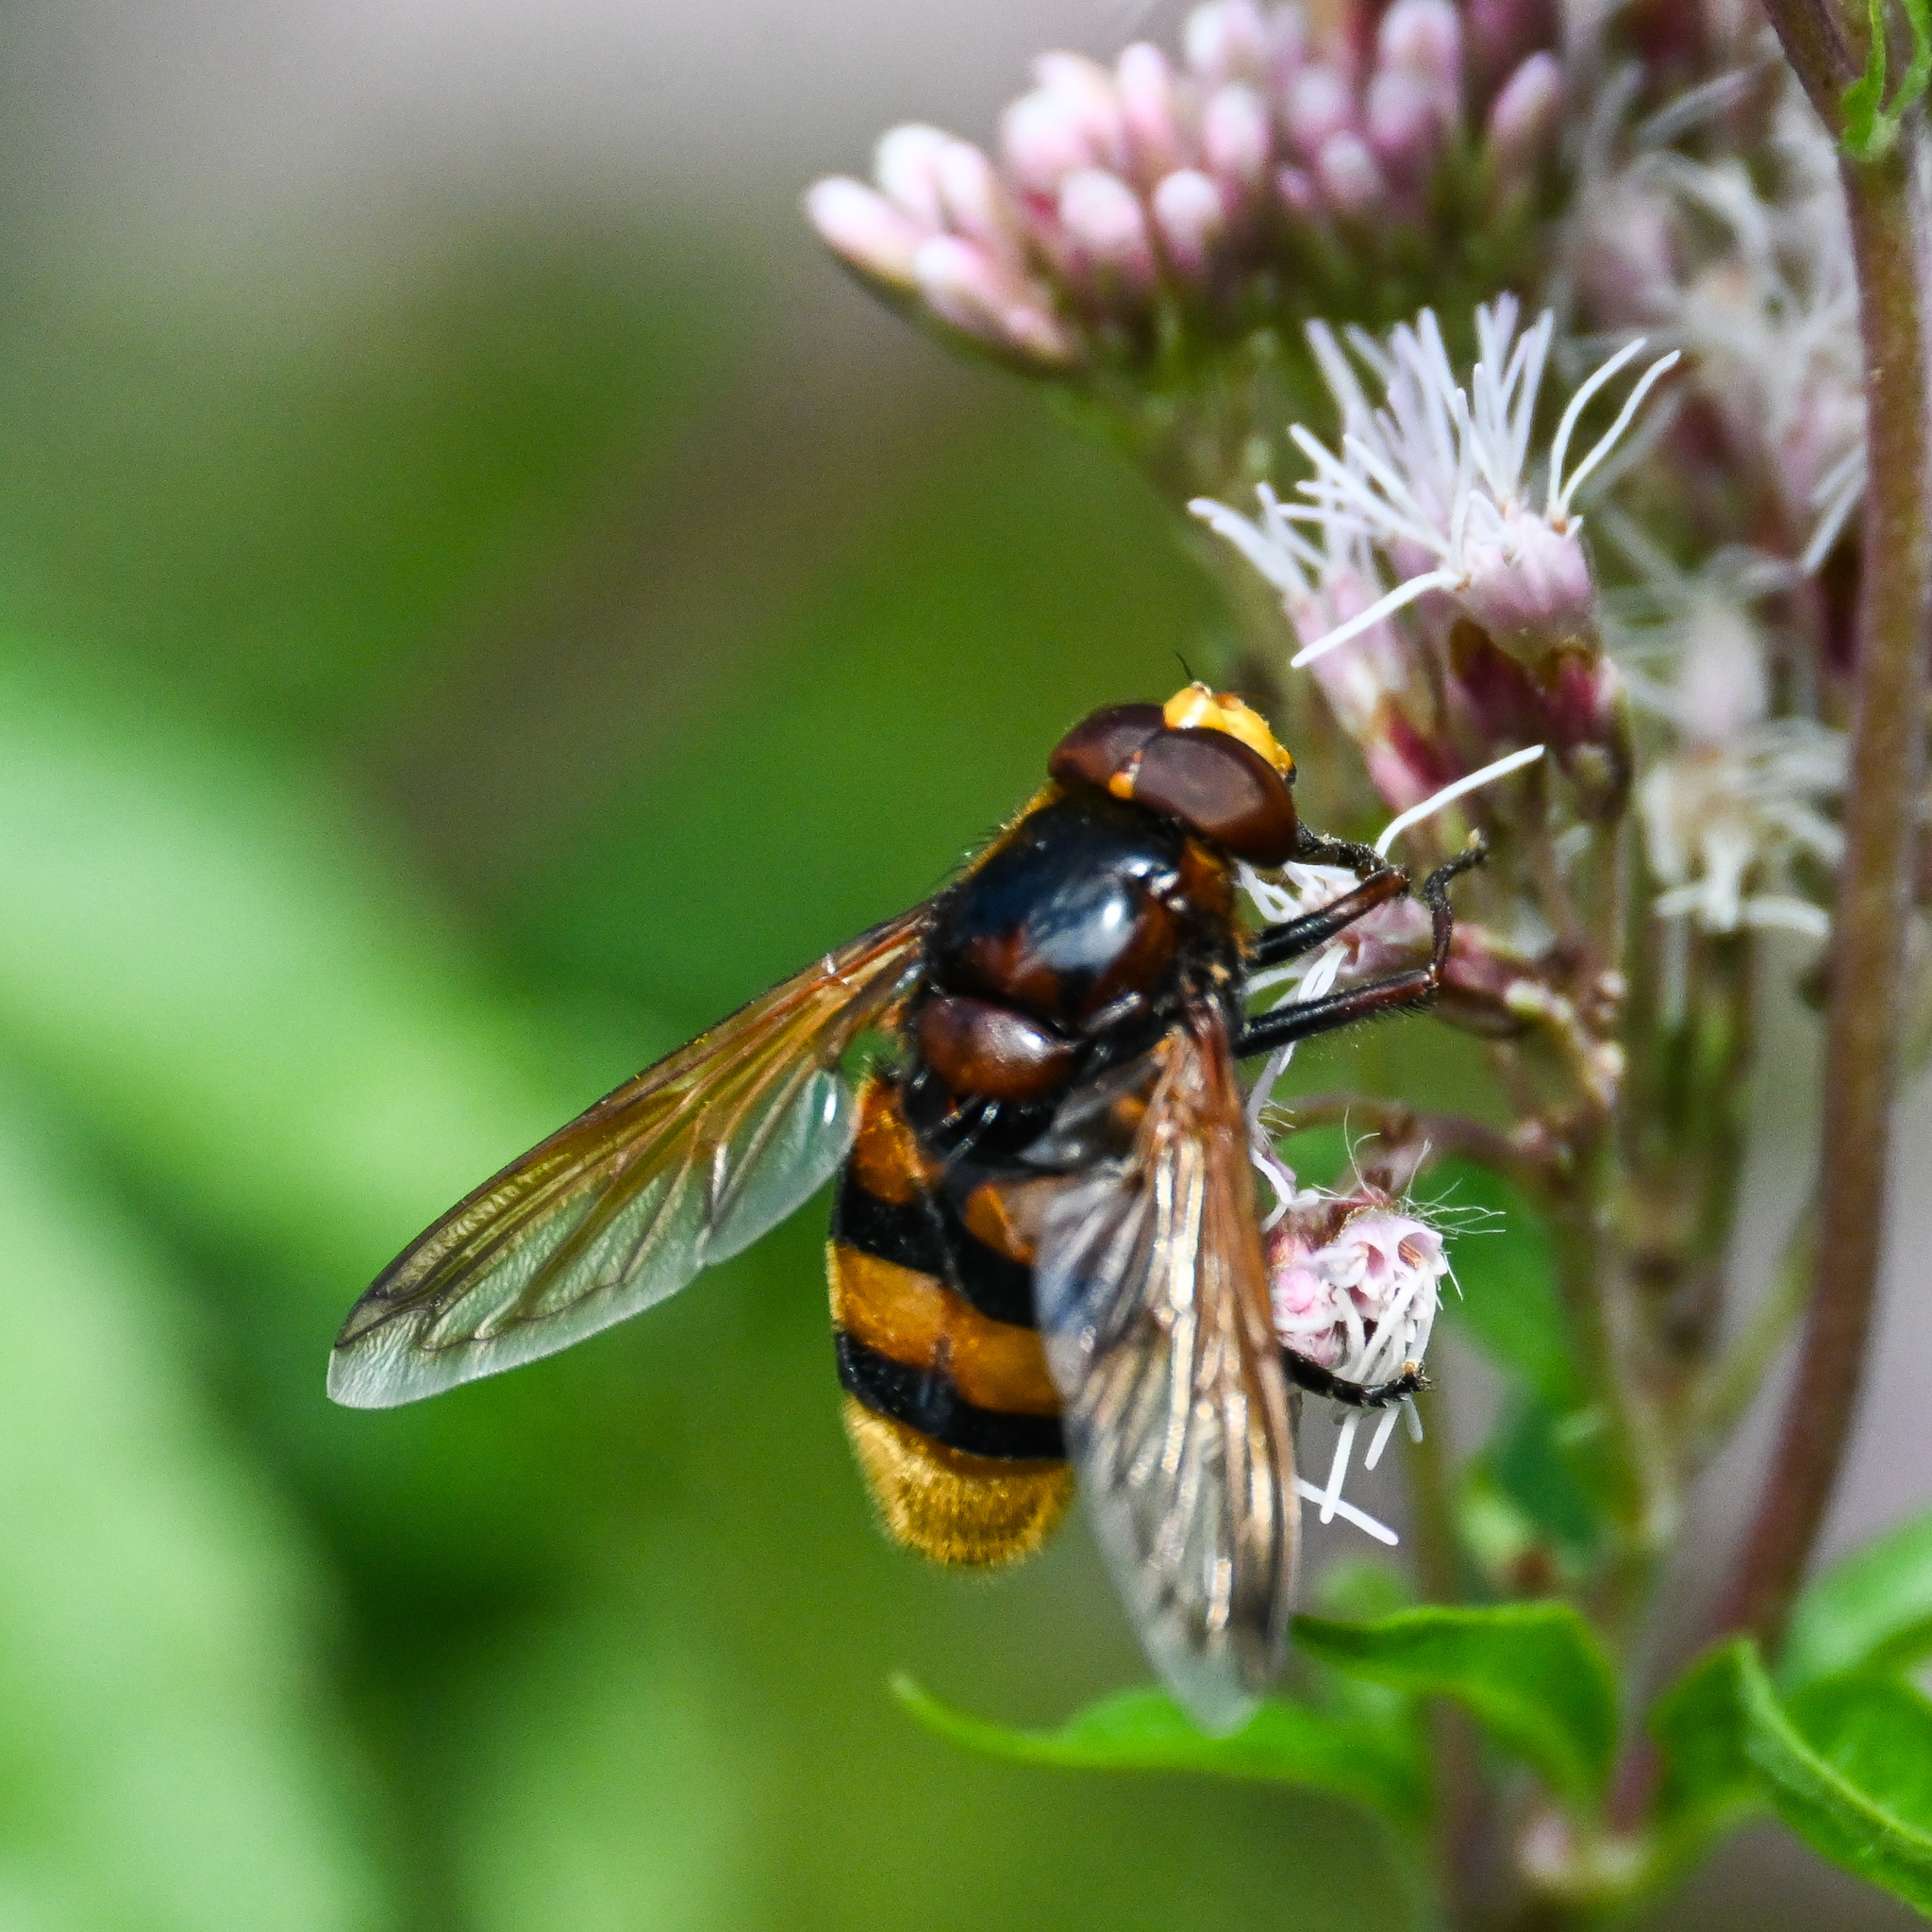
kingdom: Animalia
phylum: Arthropoda
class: Insecta
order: Diptera
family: Syrphidae
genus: Volucella
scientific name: Volucella zonaria
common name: Hornet hoverfly
